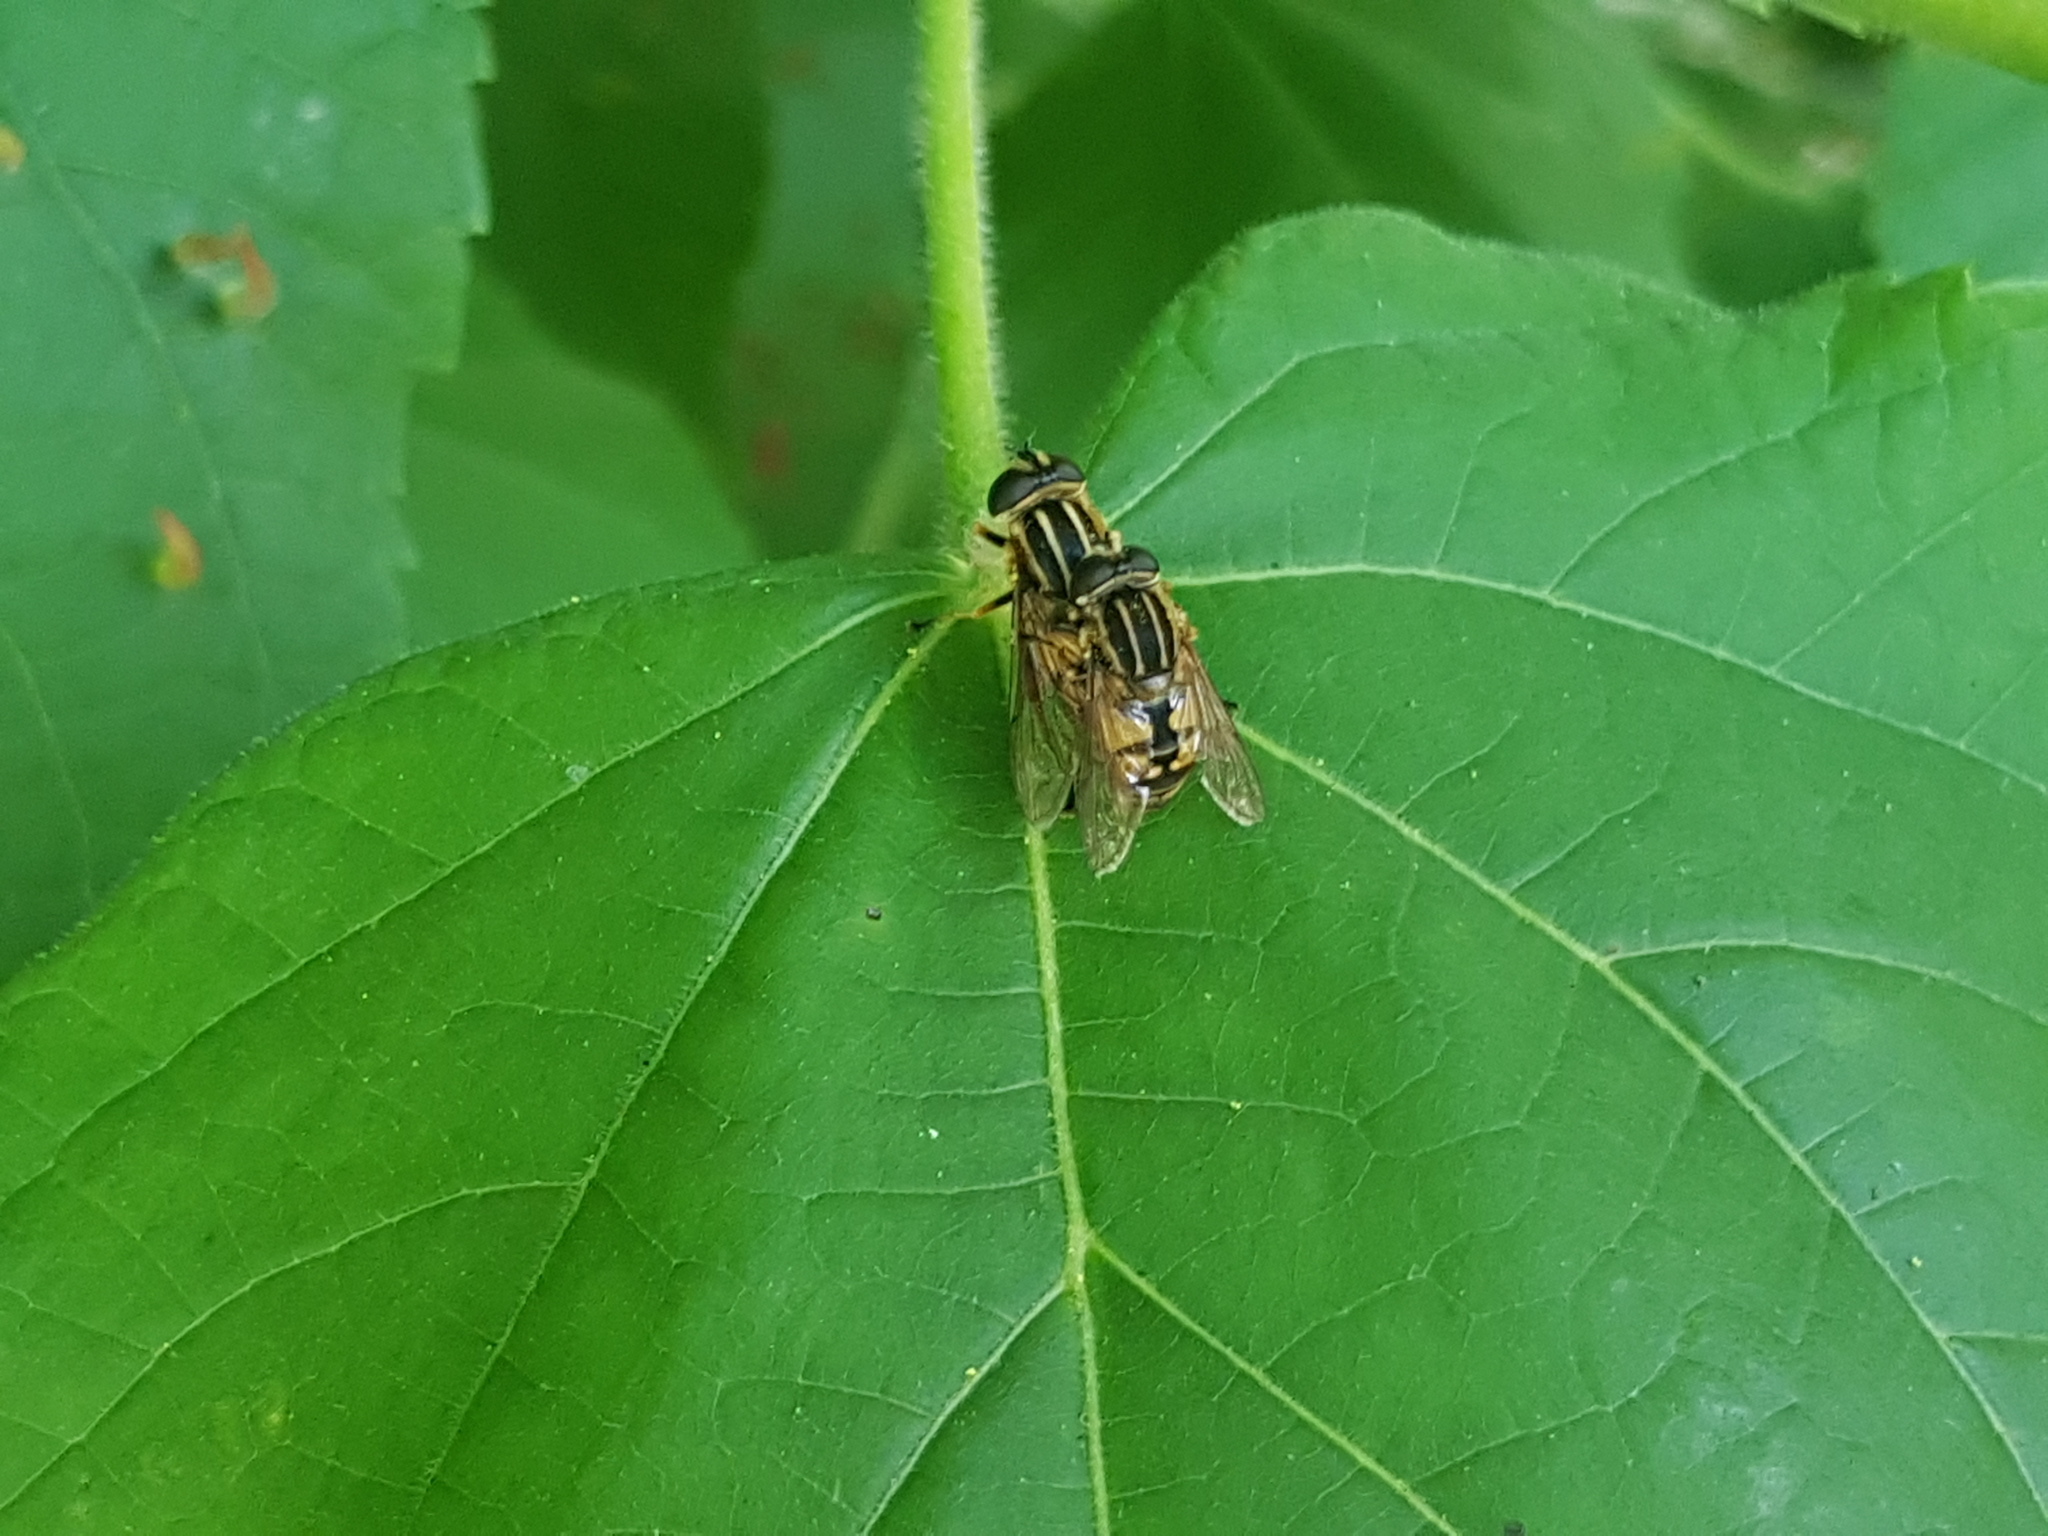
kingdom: Animalia
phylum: Arthropoda
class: Insecta
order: Diptera
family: Syrphidae
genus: Helophilus
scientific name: Helophilus pendulus
